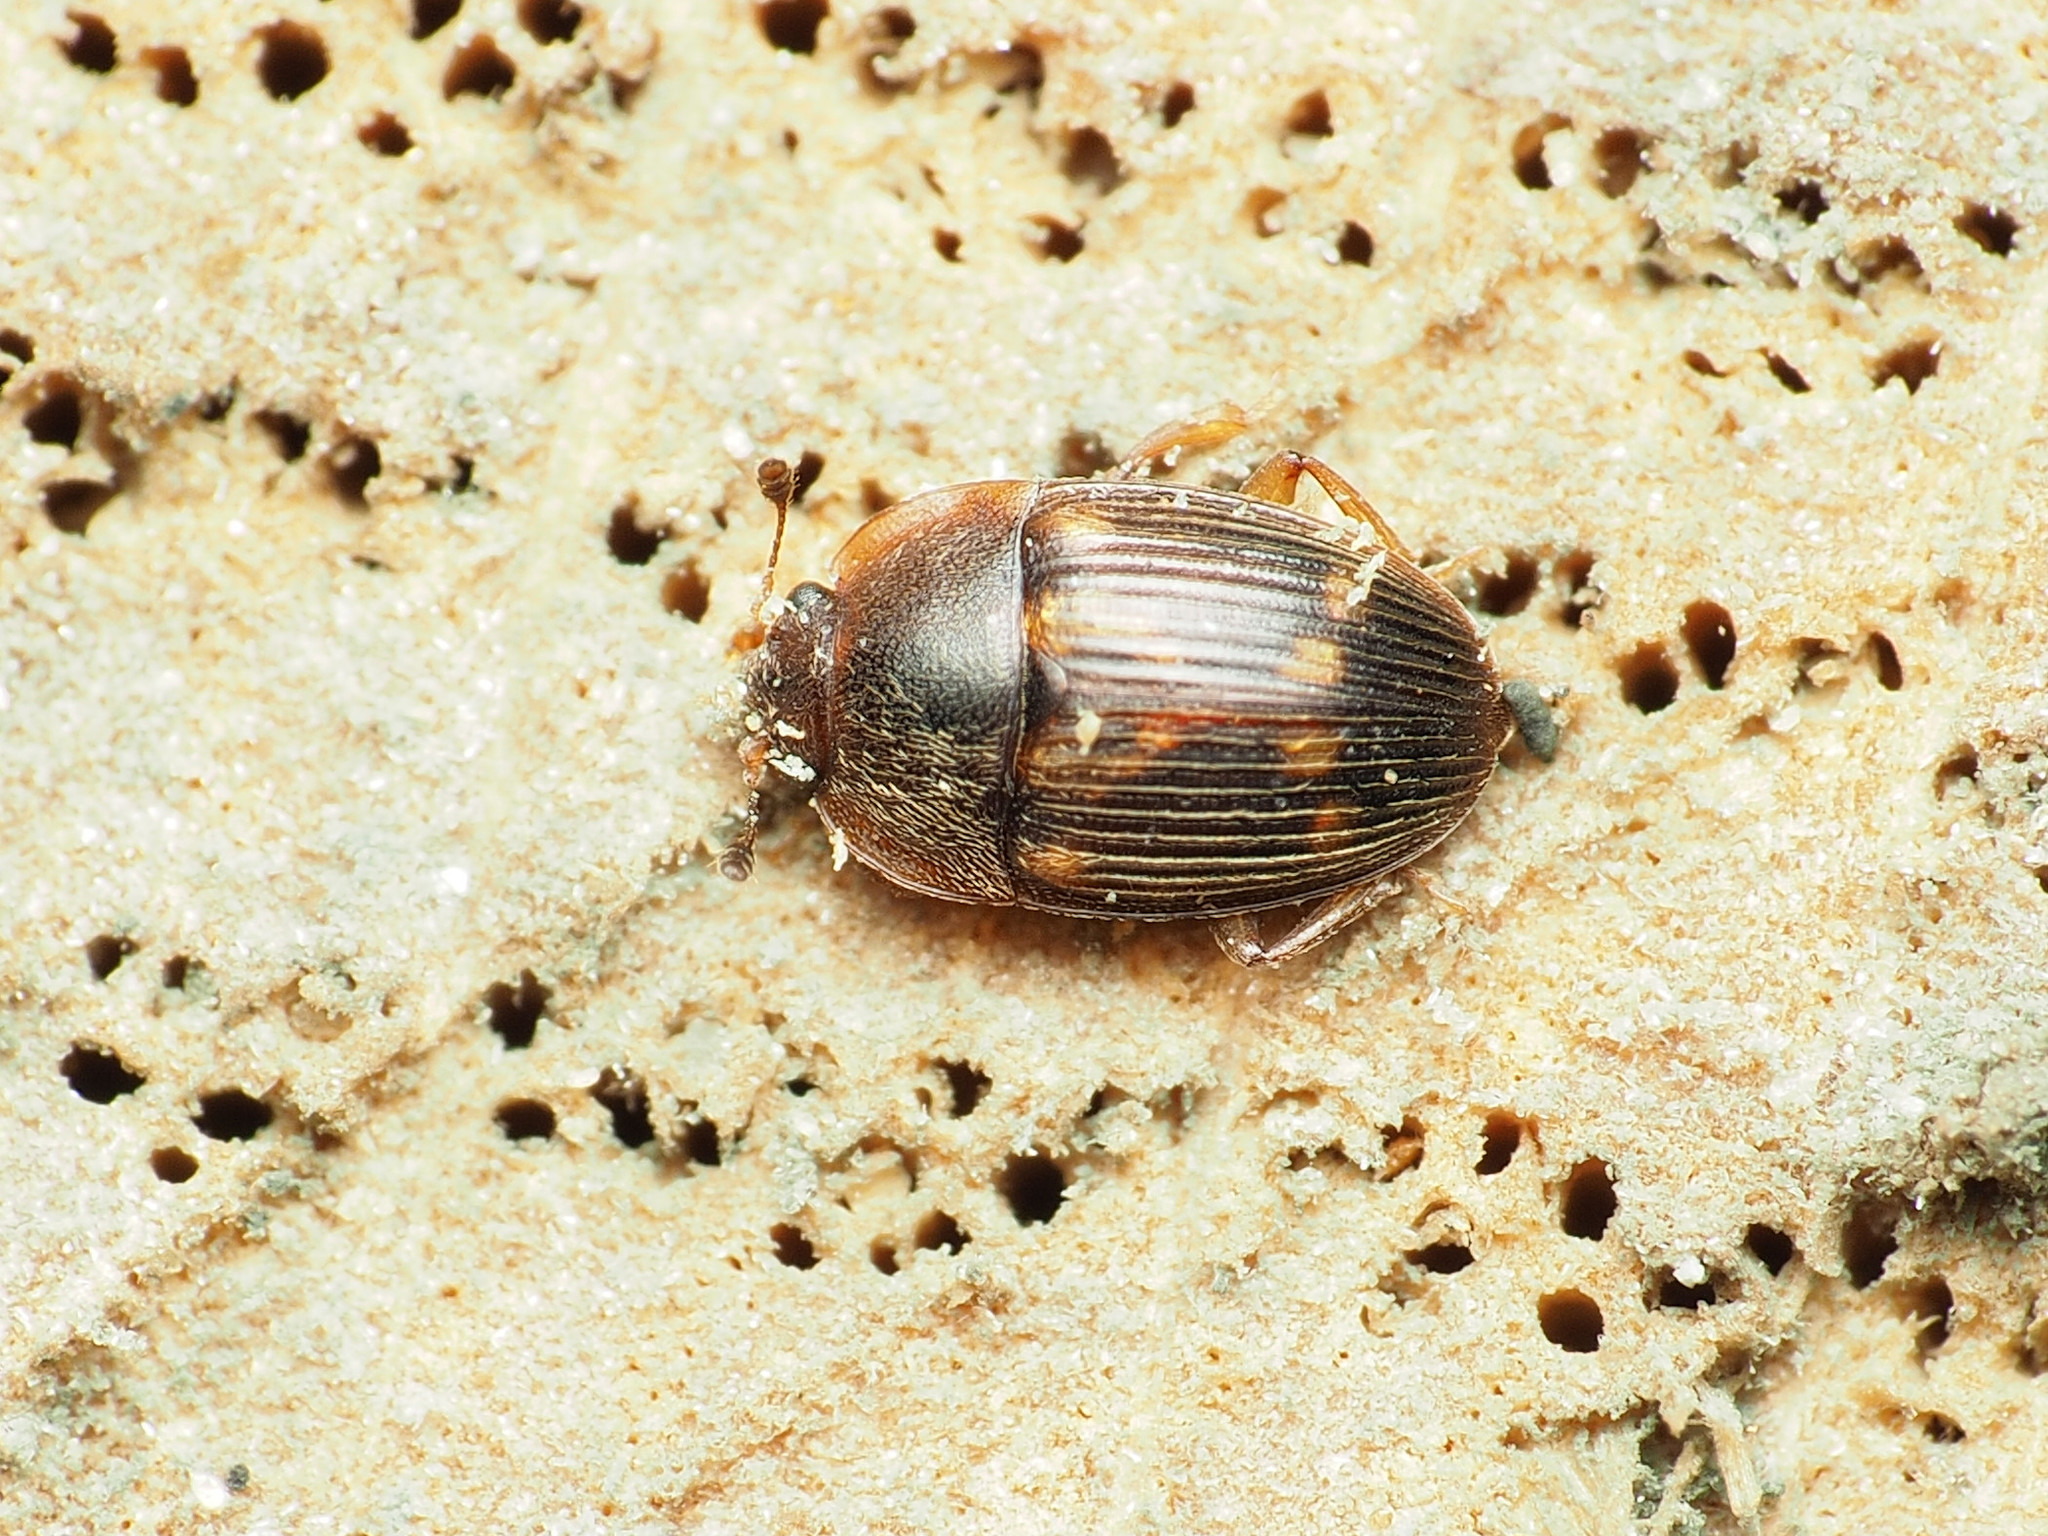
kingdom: Animalia
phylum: Arthropoda
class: Insecta
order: Coleoptera
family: Nitidulidae
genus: Stelidota
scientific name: Stelidota geminata
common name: Strawberry sap beetle
